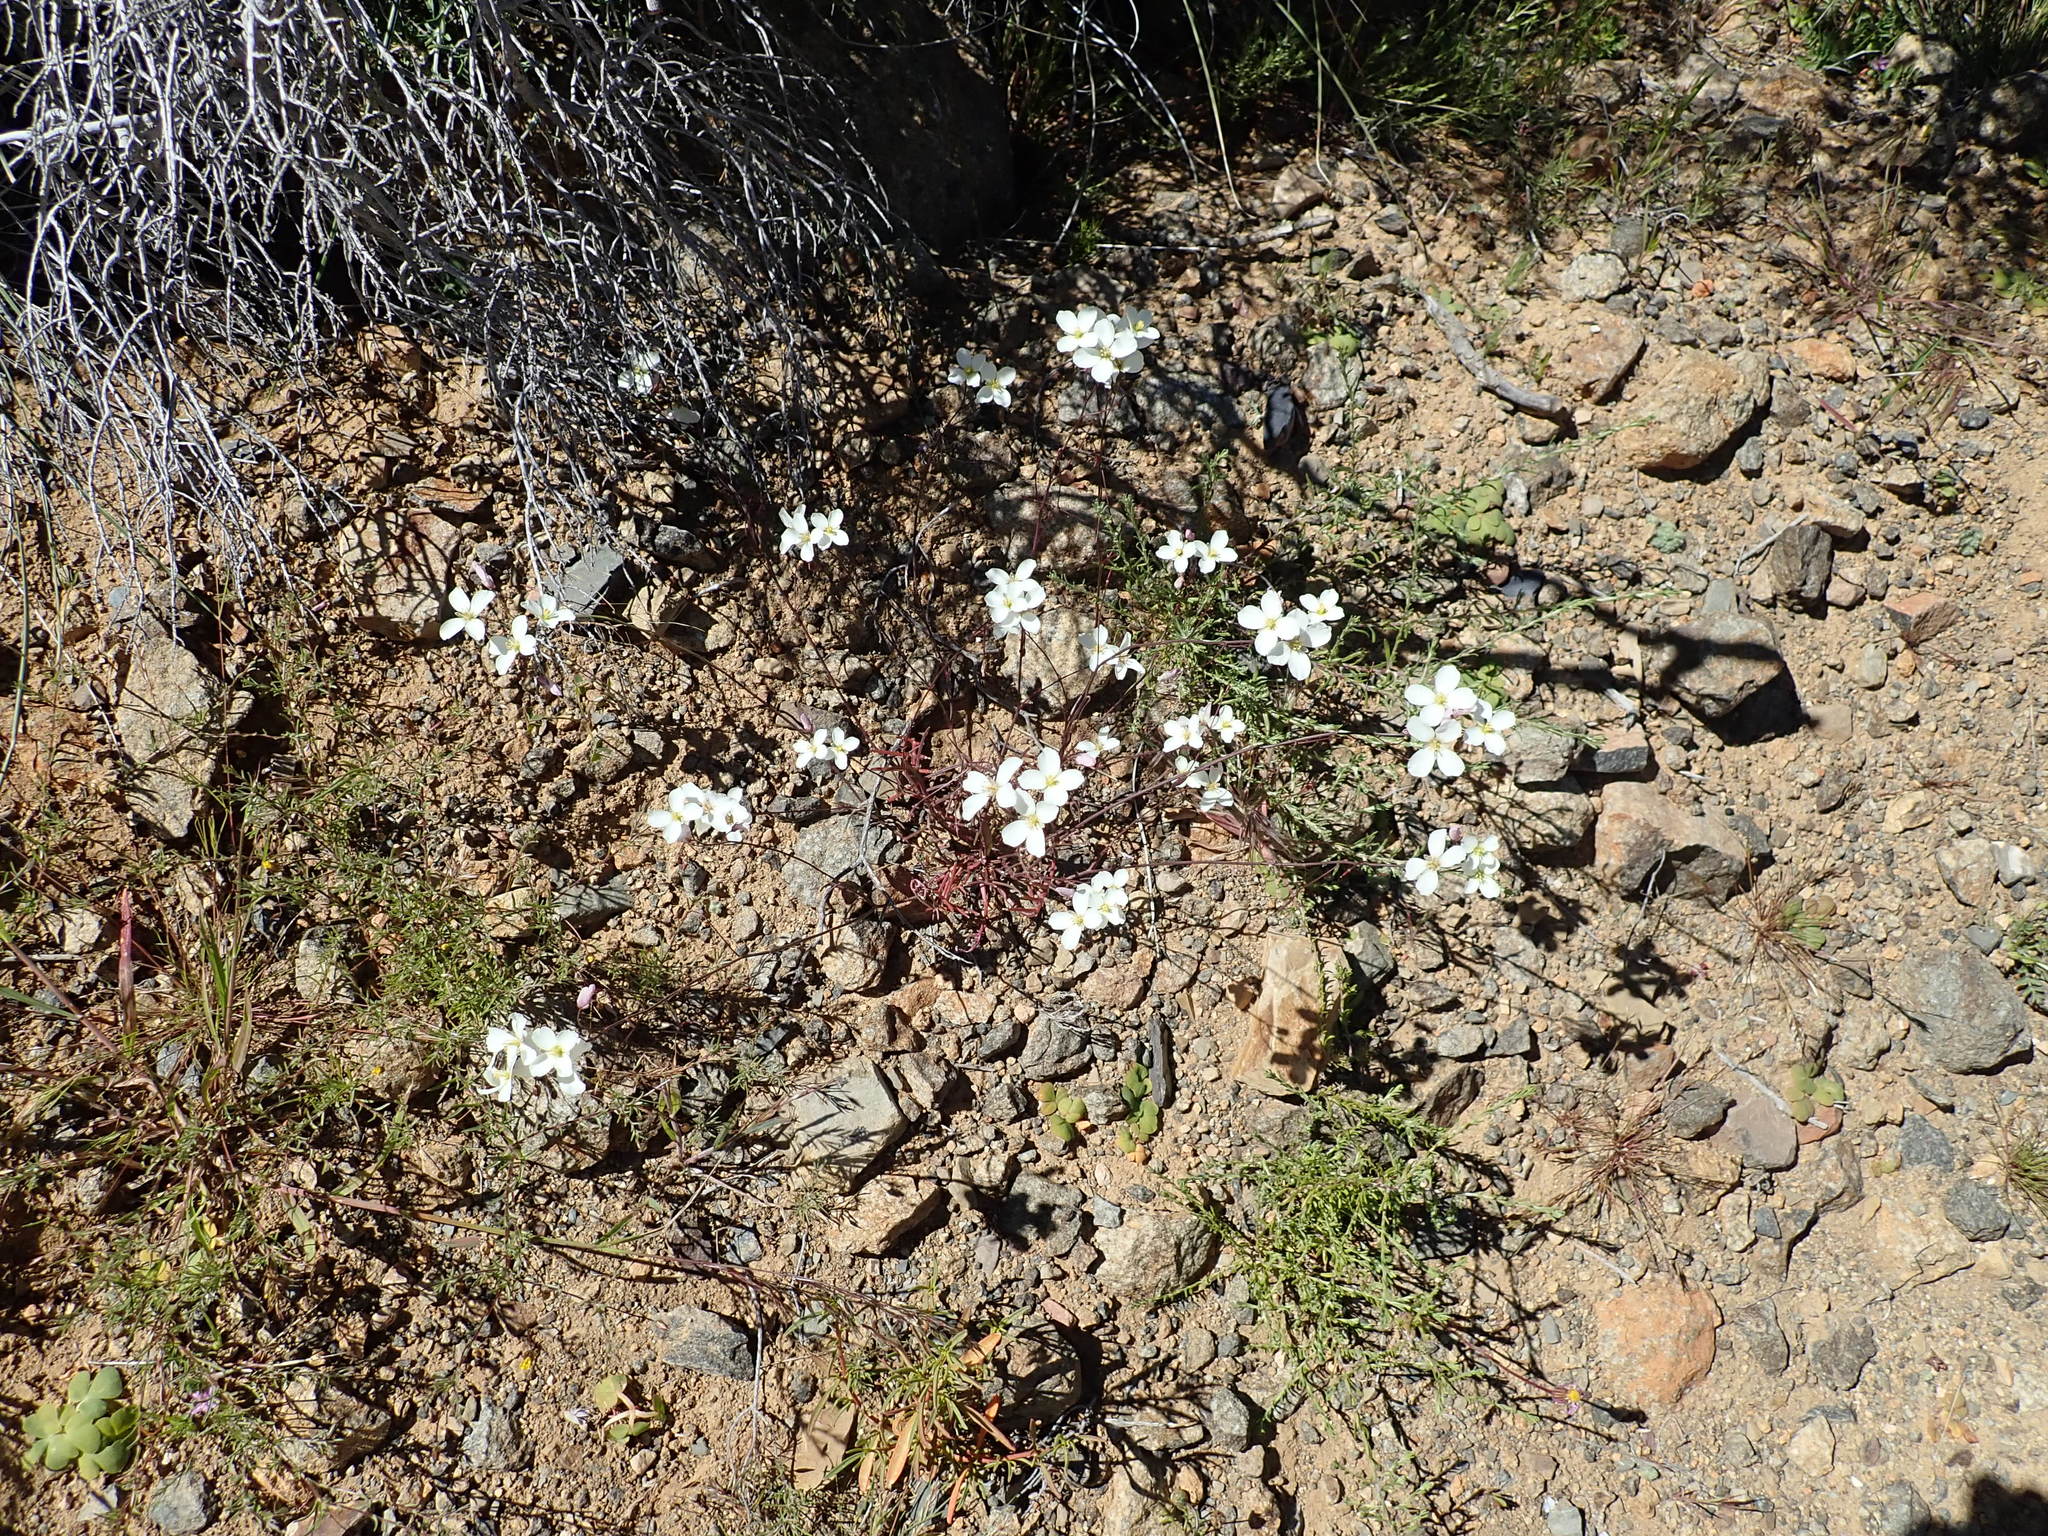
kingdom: Plantae
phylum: Tracheophyta
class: Magnoliopsida
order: Brassicales
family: Brassicaceae
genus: Heliophila
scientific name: Heliophila variabilis
